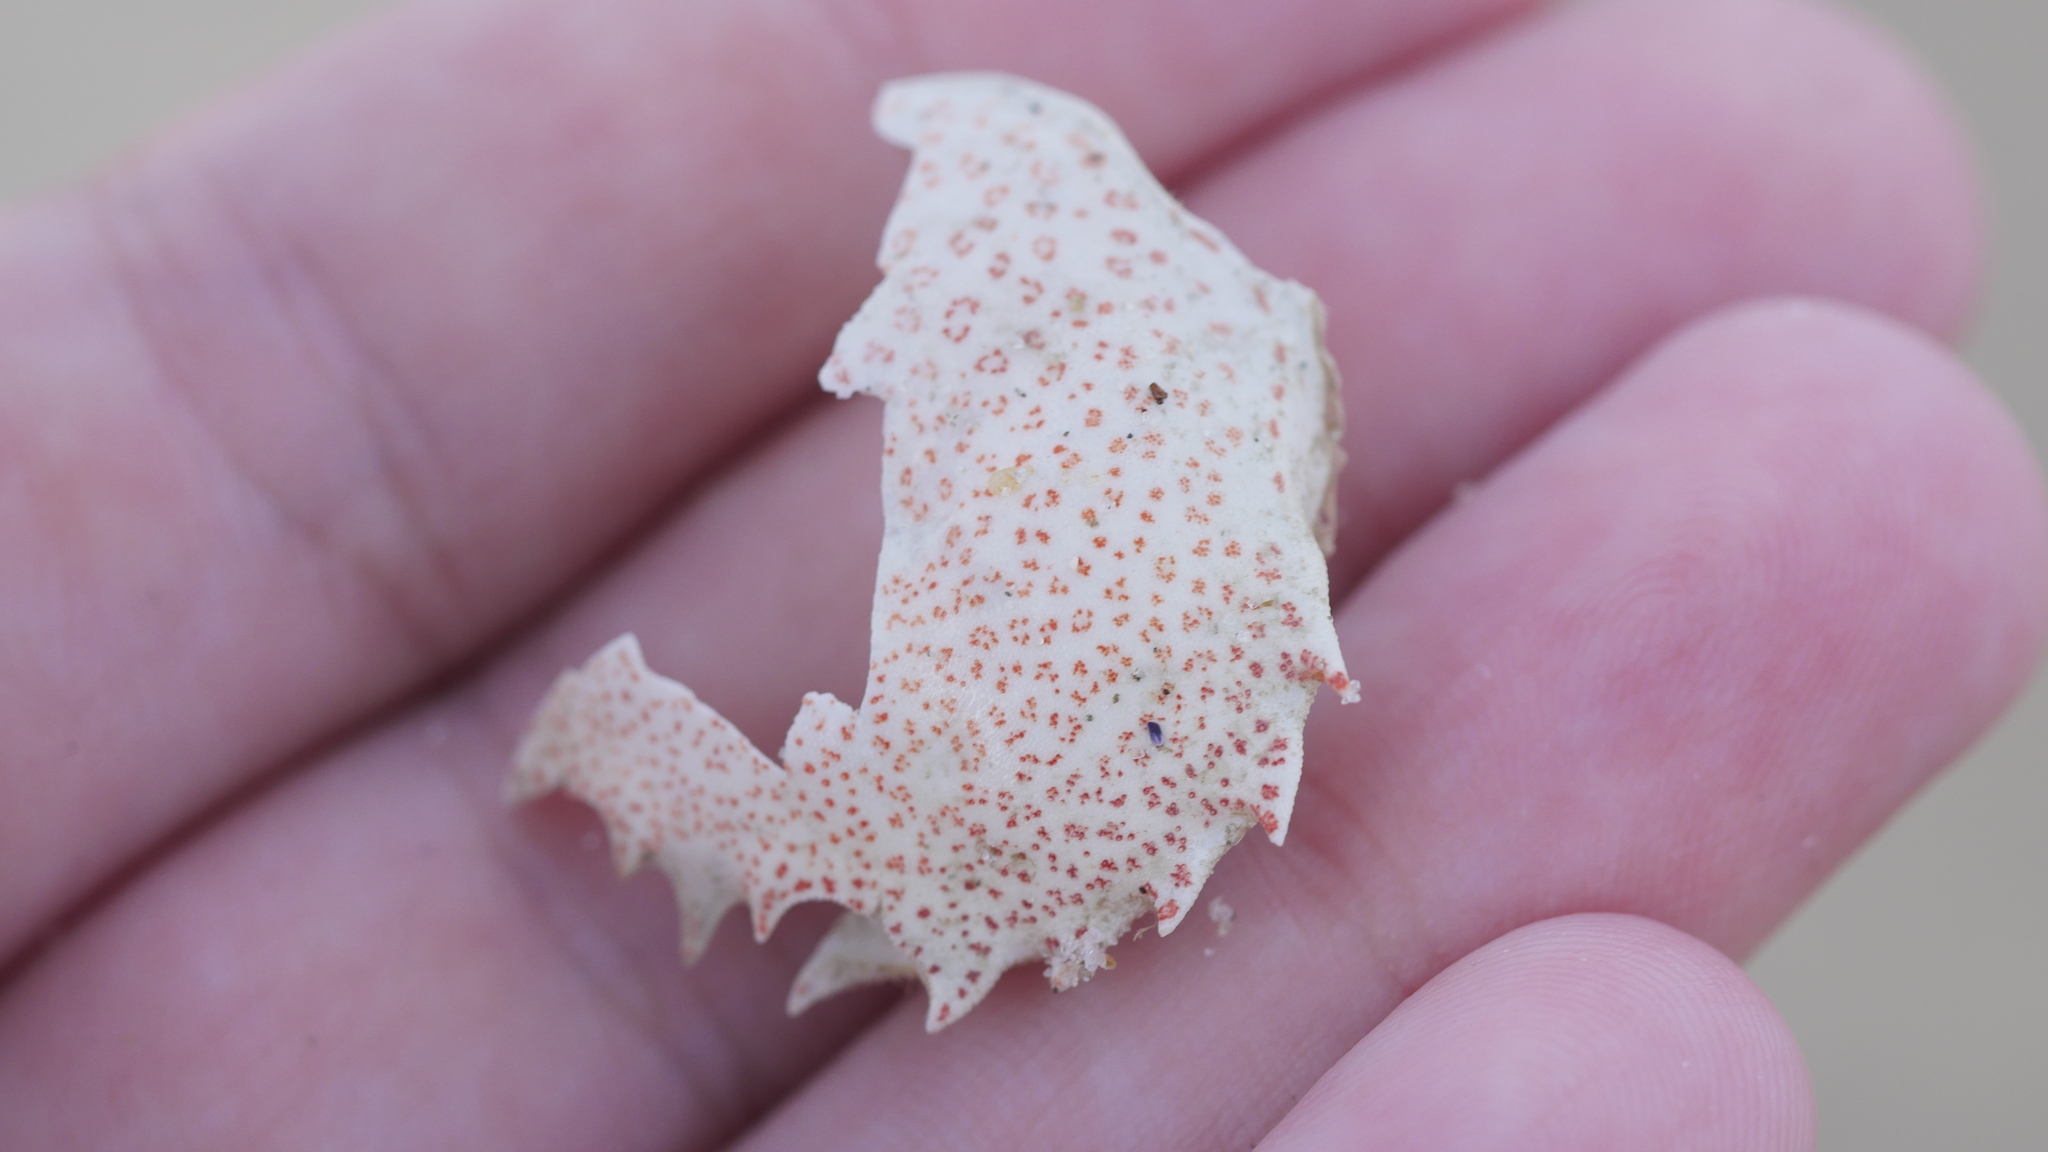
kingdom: Animalia
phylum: Arthropoda
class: Malacostraca
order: Decapoda
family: Ovalipidae
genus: Ovalipes
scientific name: Ovalipes ocellatus
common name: Lady crab
